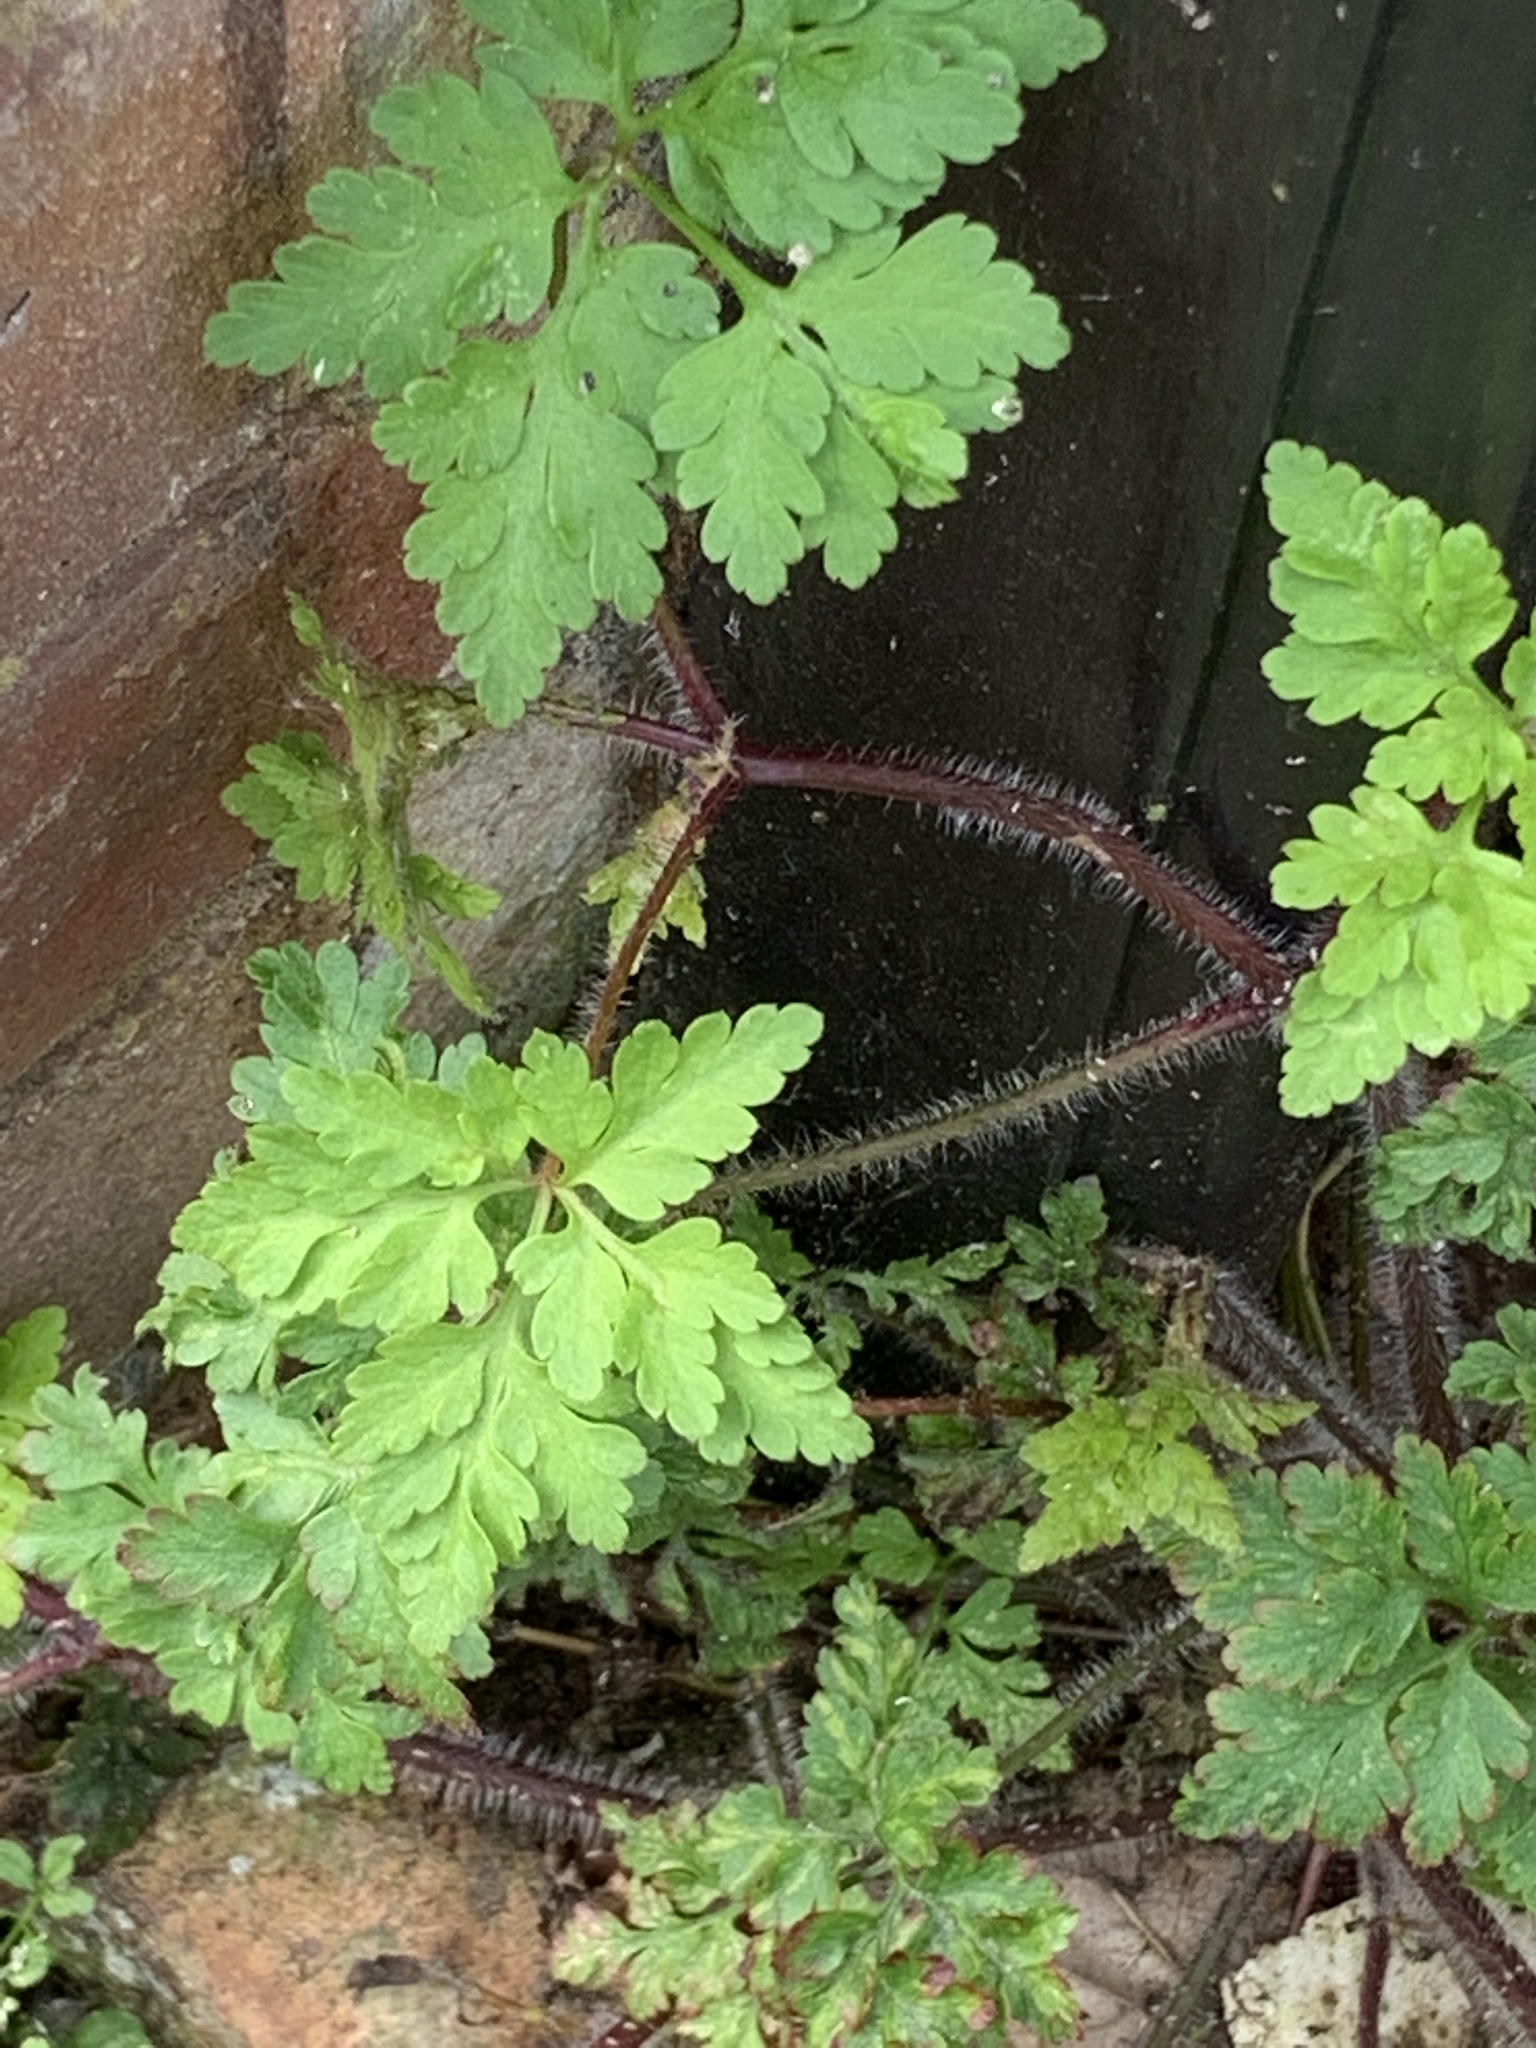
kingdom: Plantae
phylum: Tracheophyta
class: Magnoliopsida
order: Geraniales
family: Geraniaceae
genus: Geranium
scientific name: Geranium robertianum
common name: Herb-robert
